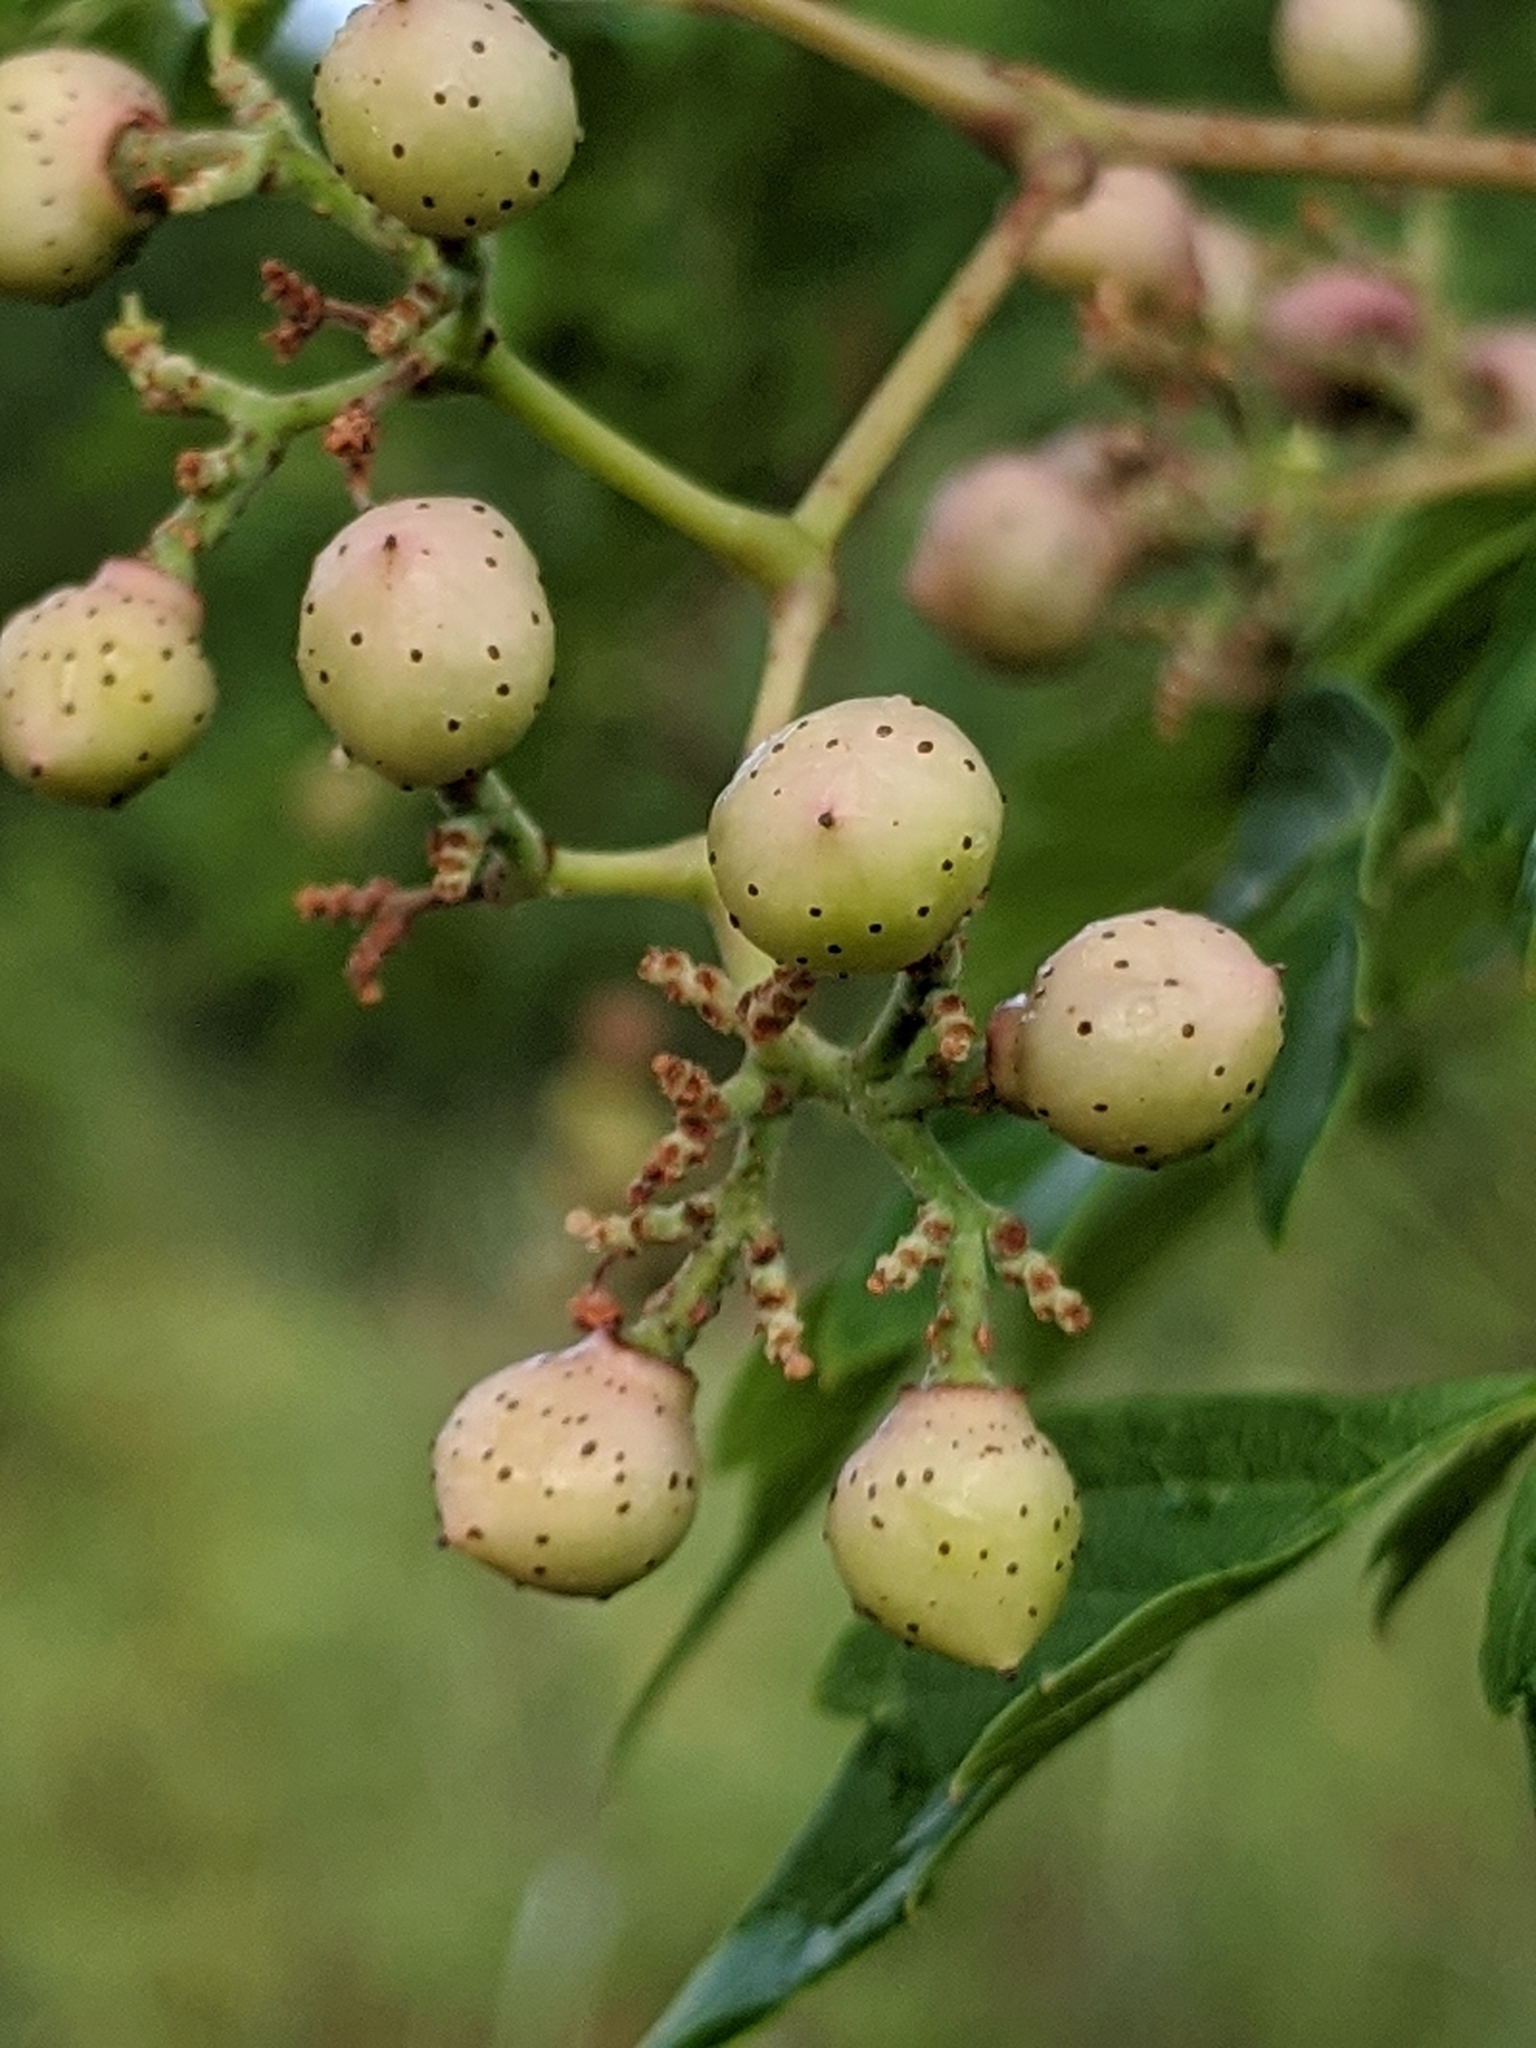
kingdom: Plantae
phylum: Tracheophyta
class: Magnoliopsida
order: Vitales
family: Vitaceae
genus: Nekemias
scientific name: Nekemias arborea
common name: Peppervine
